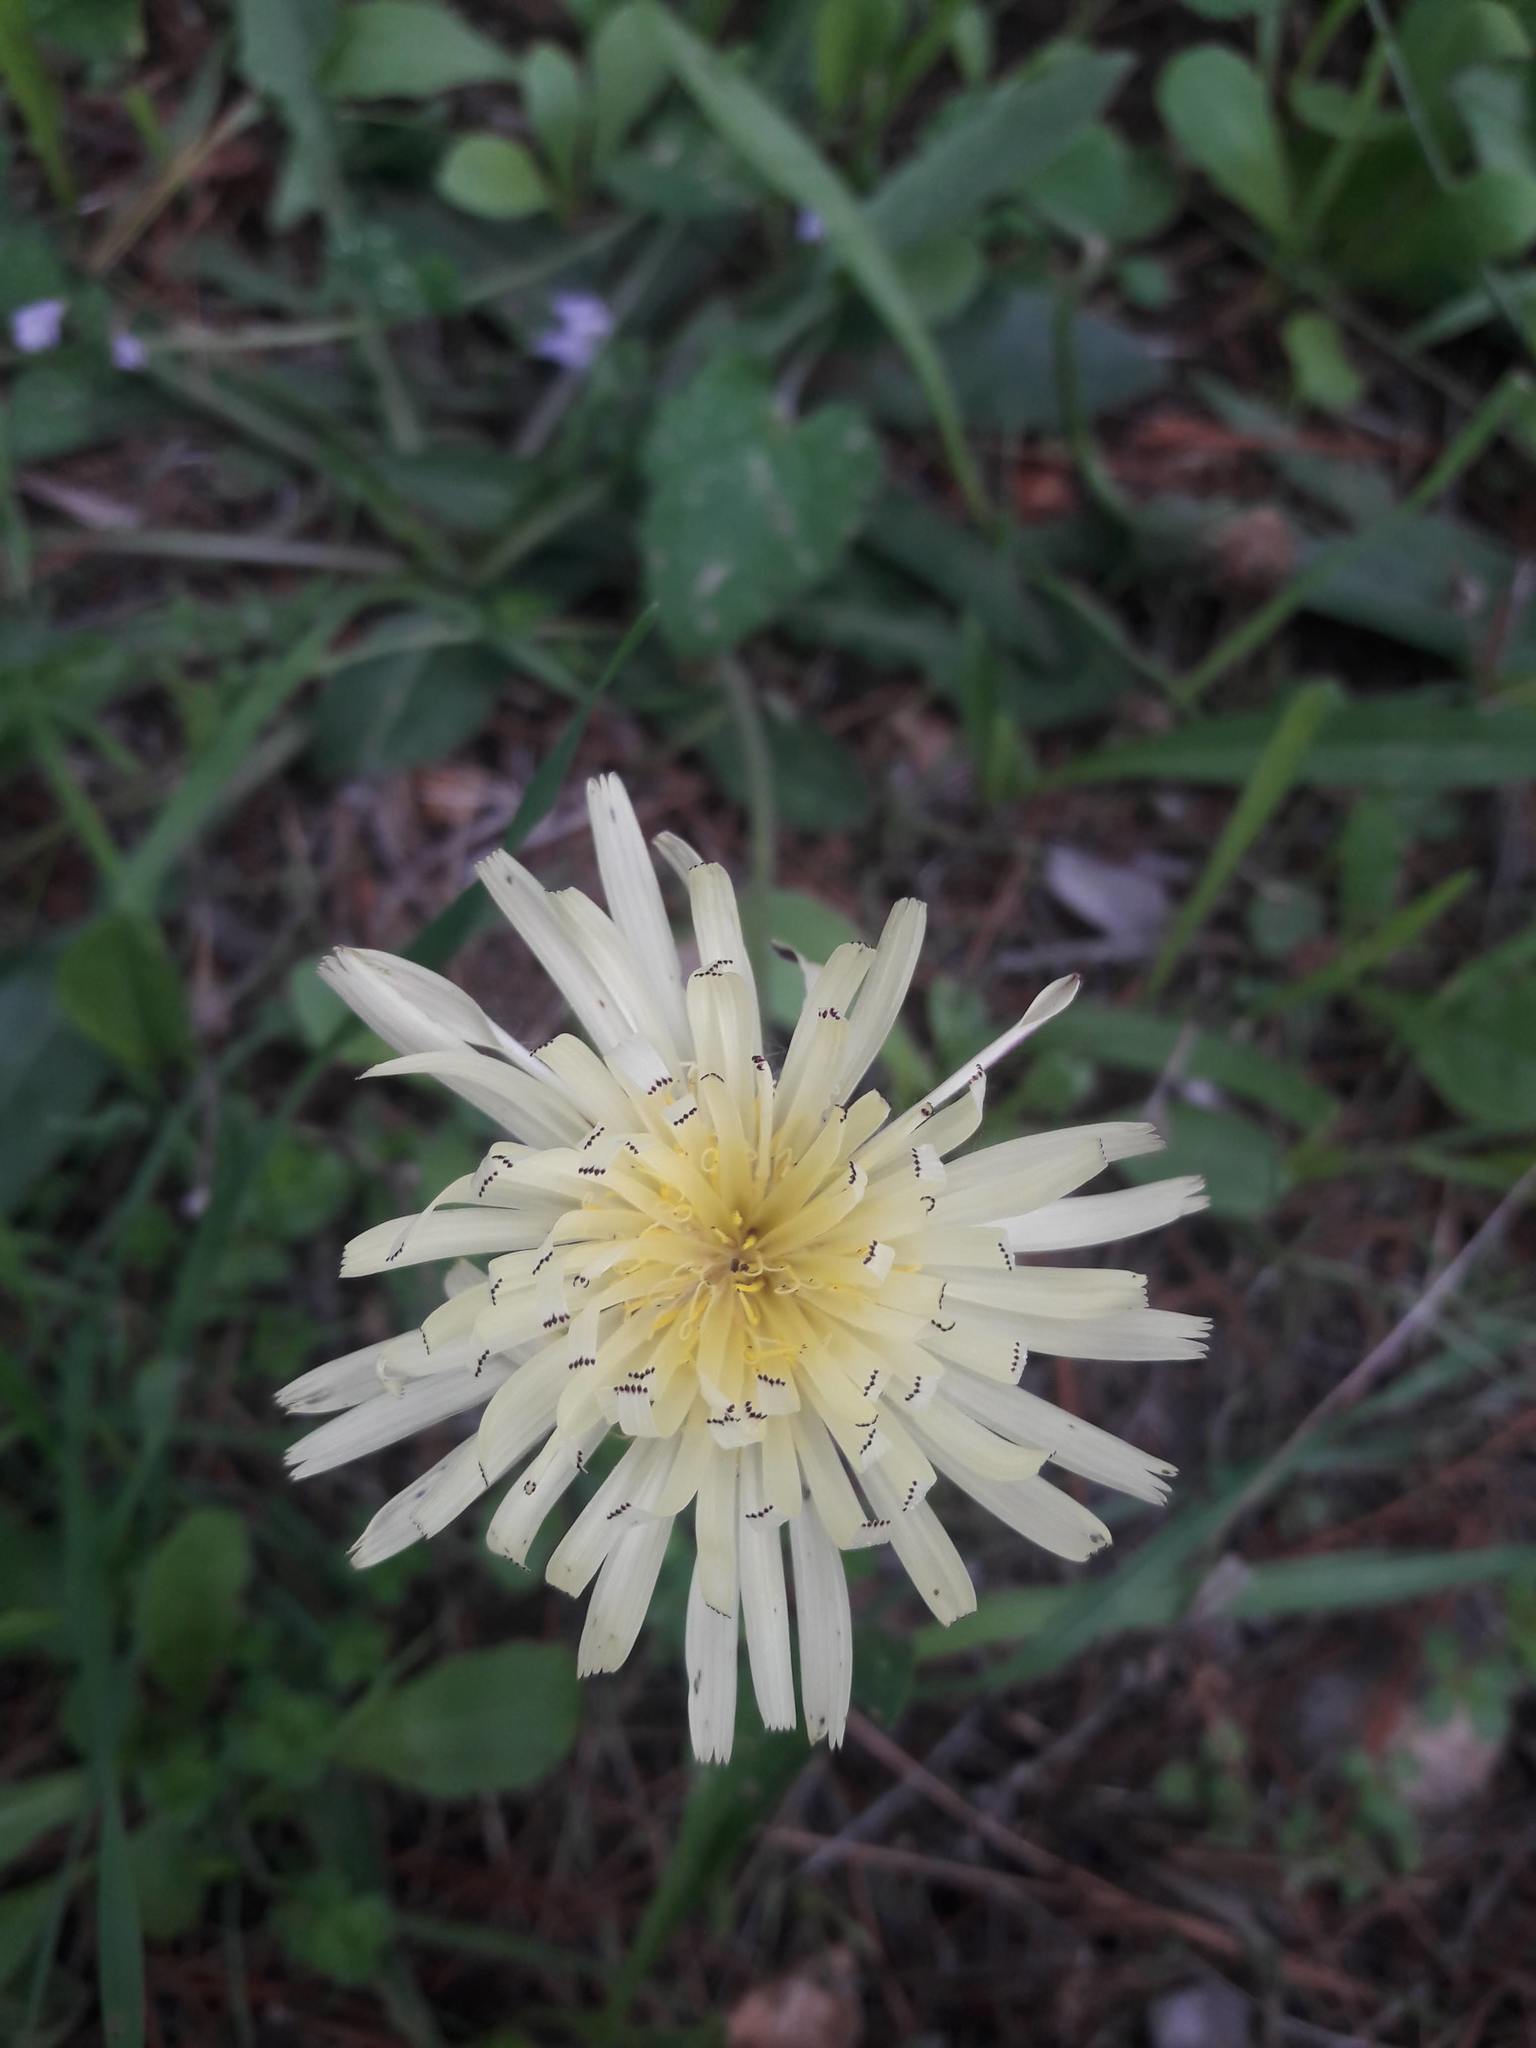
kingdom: Plantae
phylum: Tracheophyta
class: Magnoliopsida
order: Asterales
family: Asteraceae
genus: Urospermum
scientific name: Urospermum dalechampii
